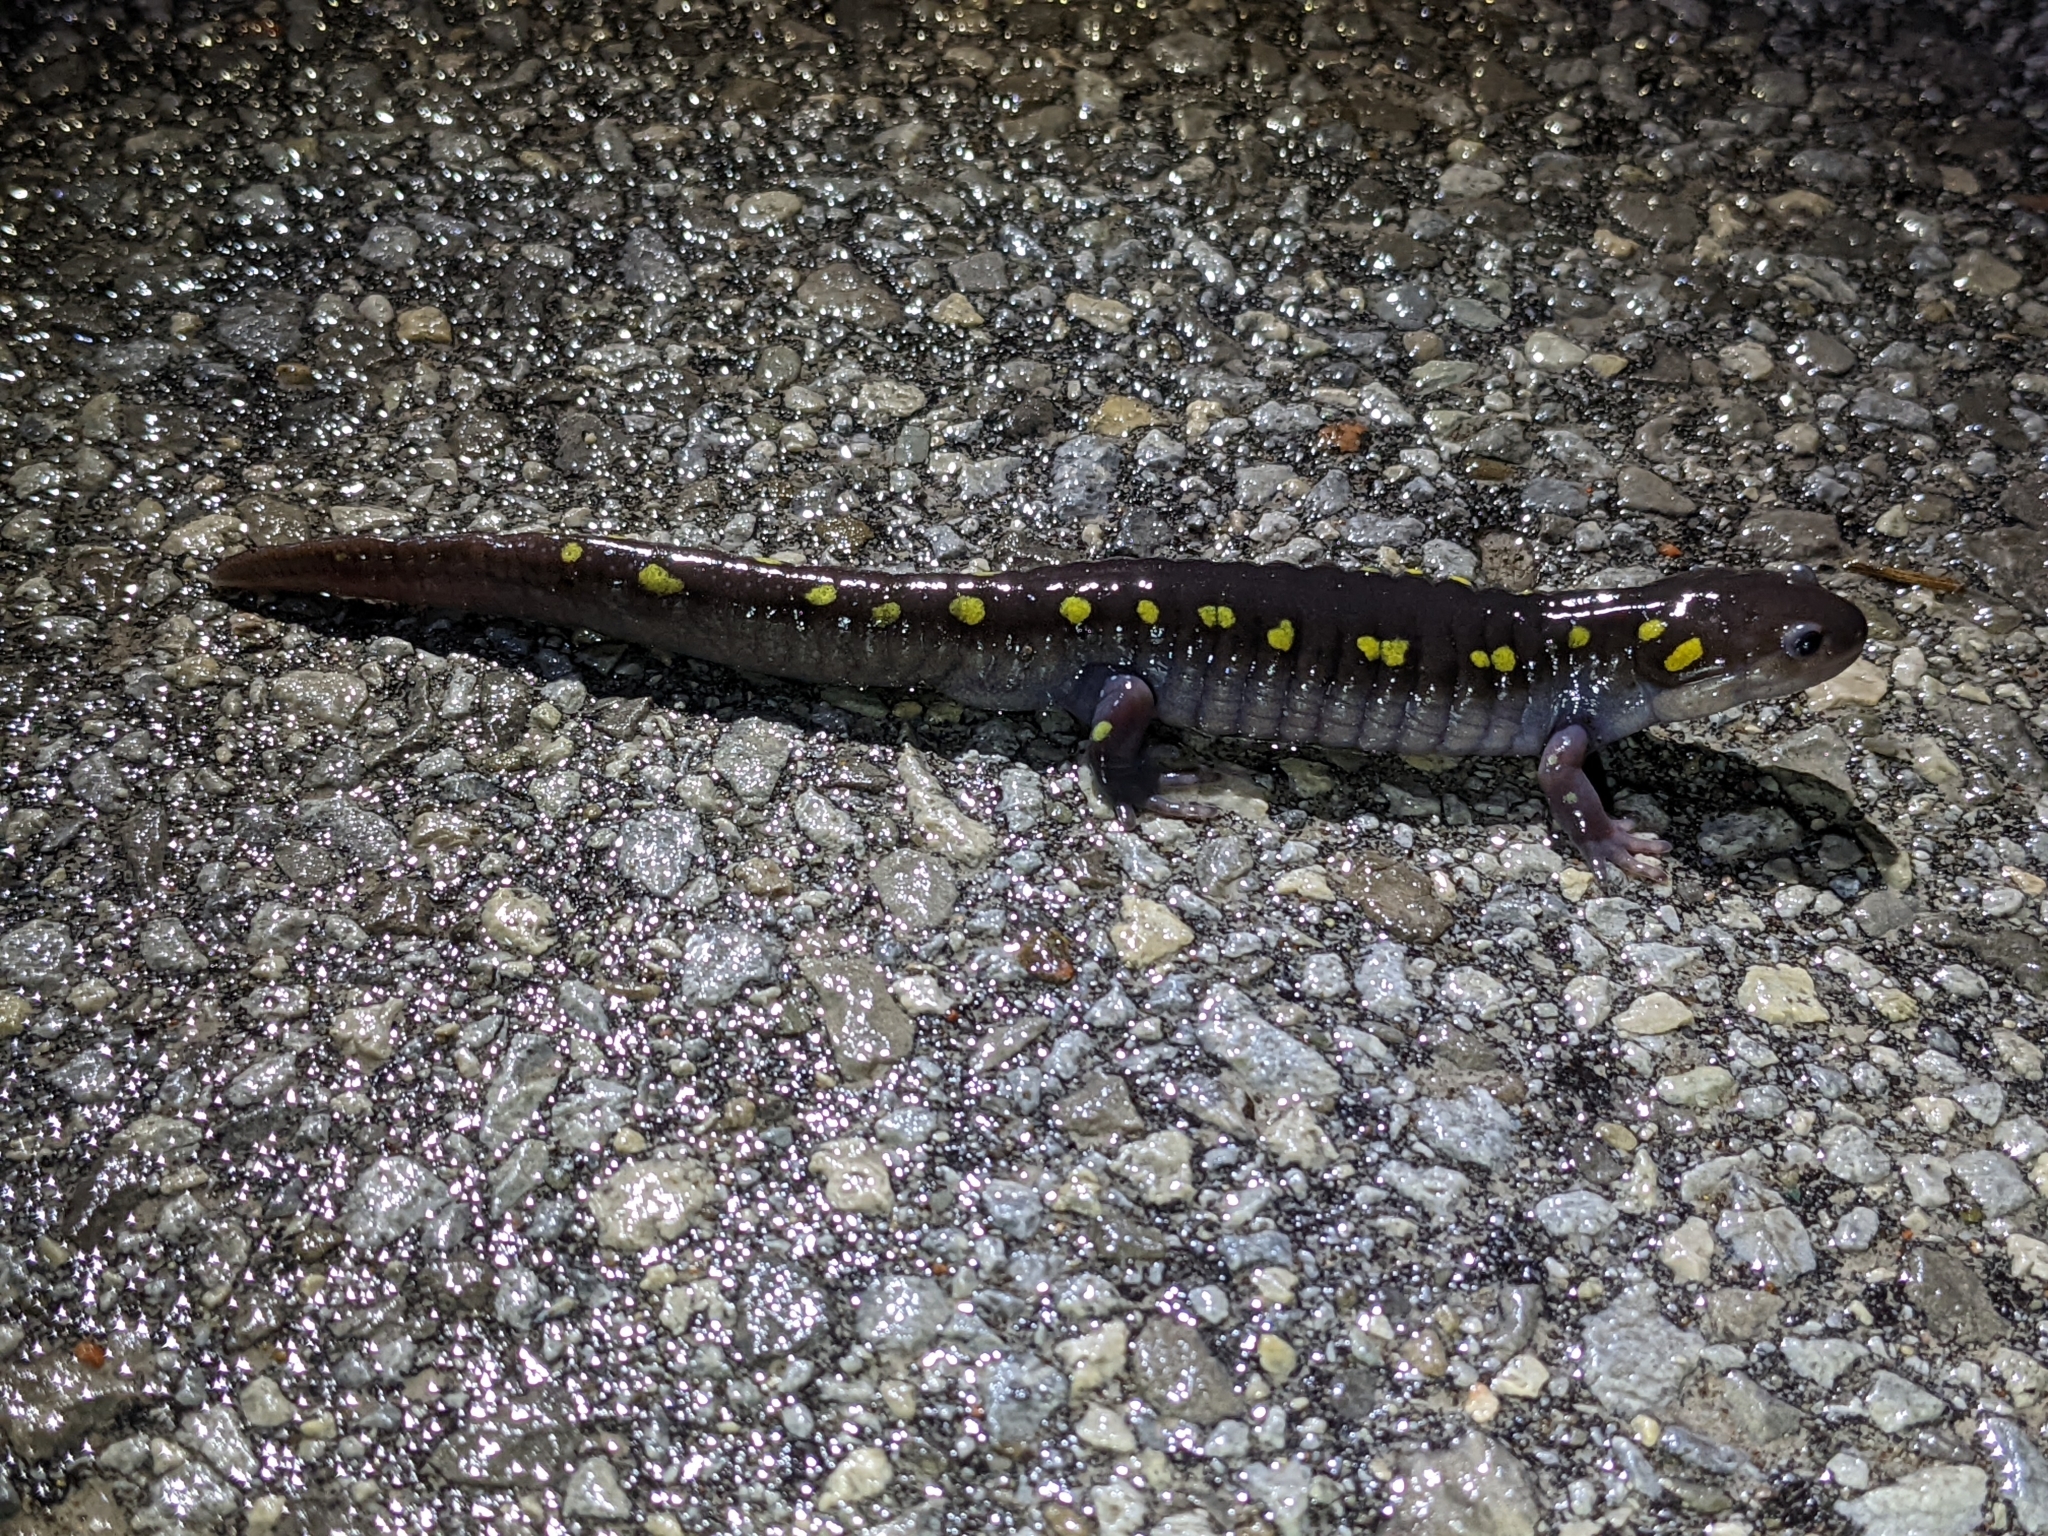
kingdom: Animalia
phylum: Chordata
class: Amphibia
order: Caudata
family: Ambystomatidae
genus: Ambystoma
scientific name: Ambystoma maculatum
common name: Spotted salamander
